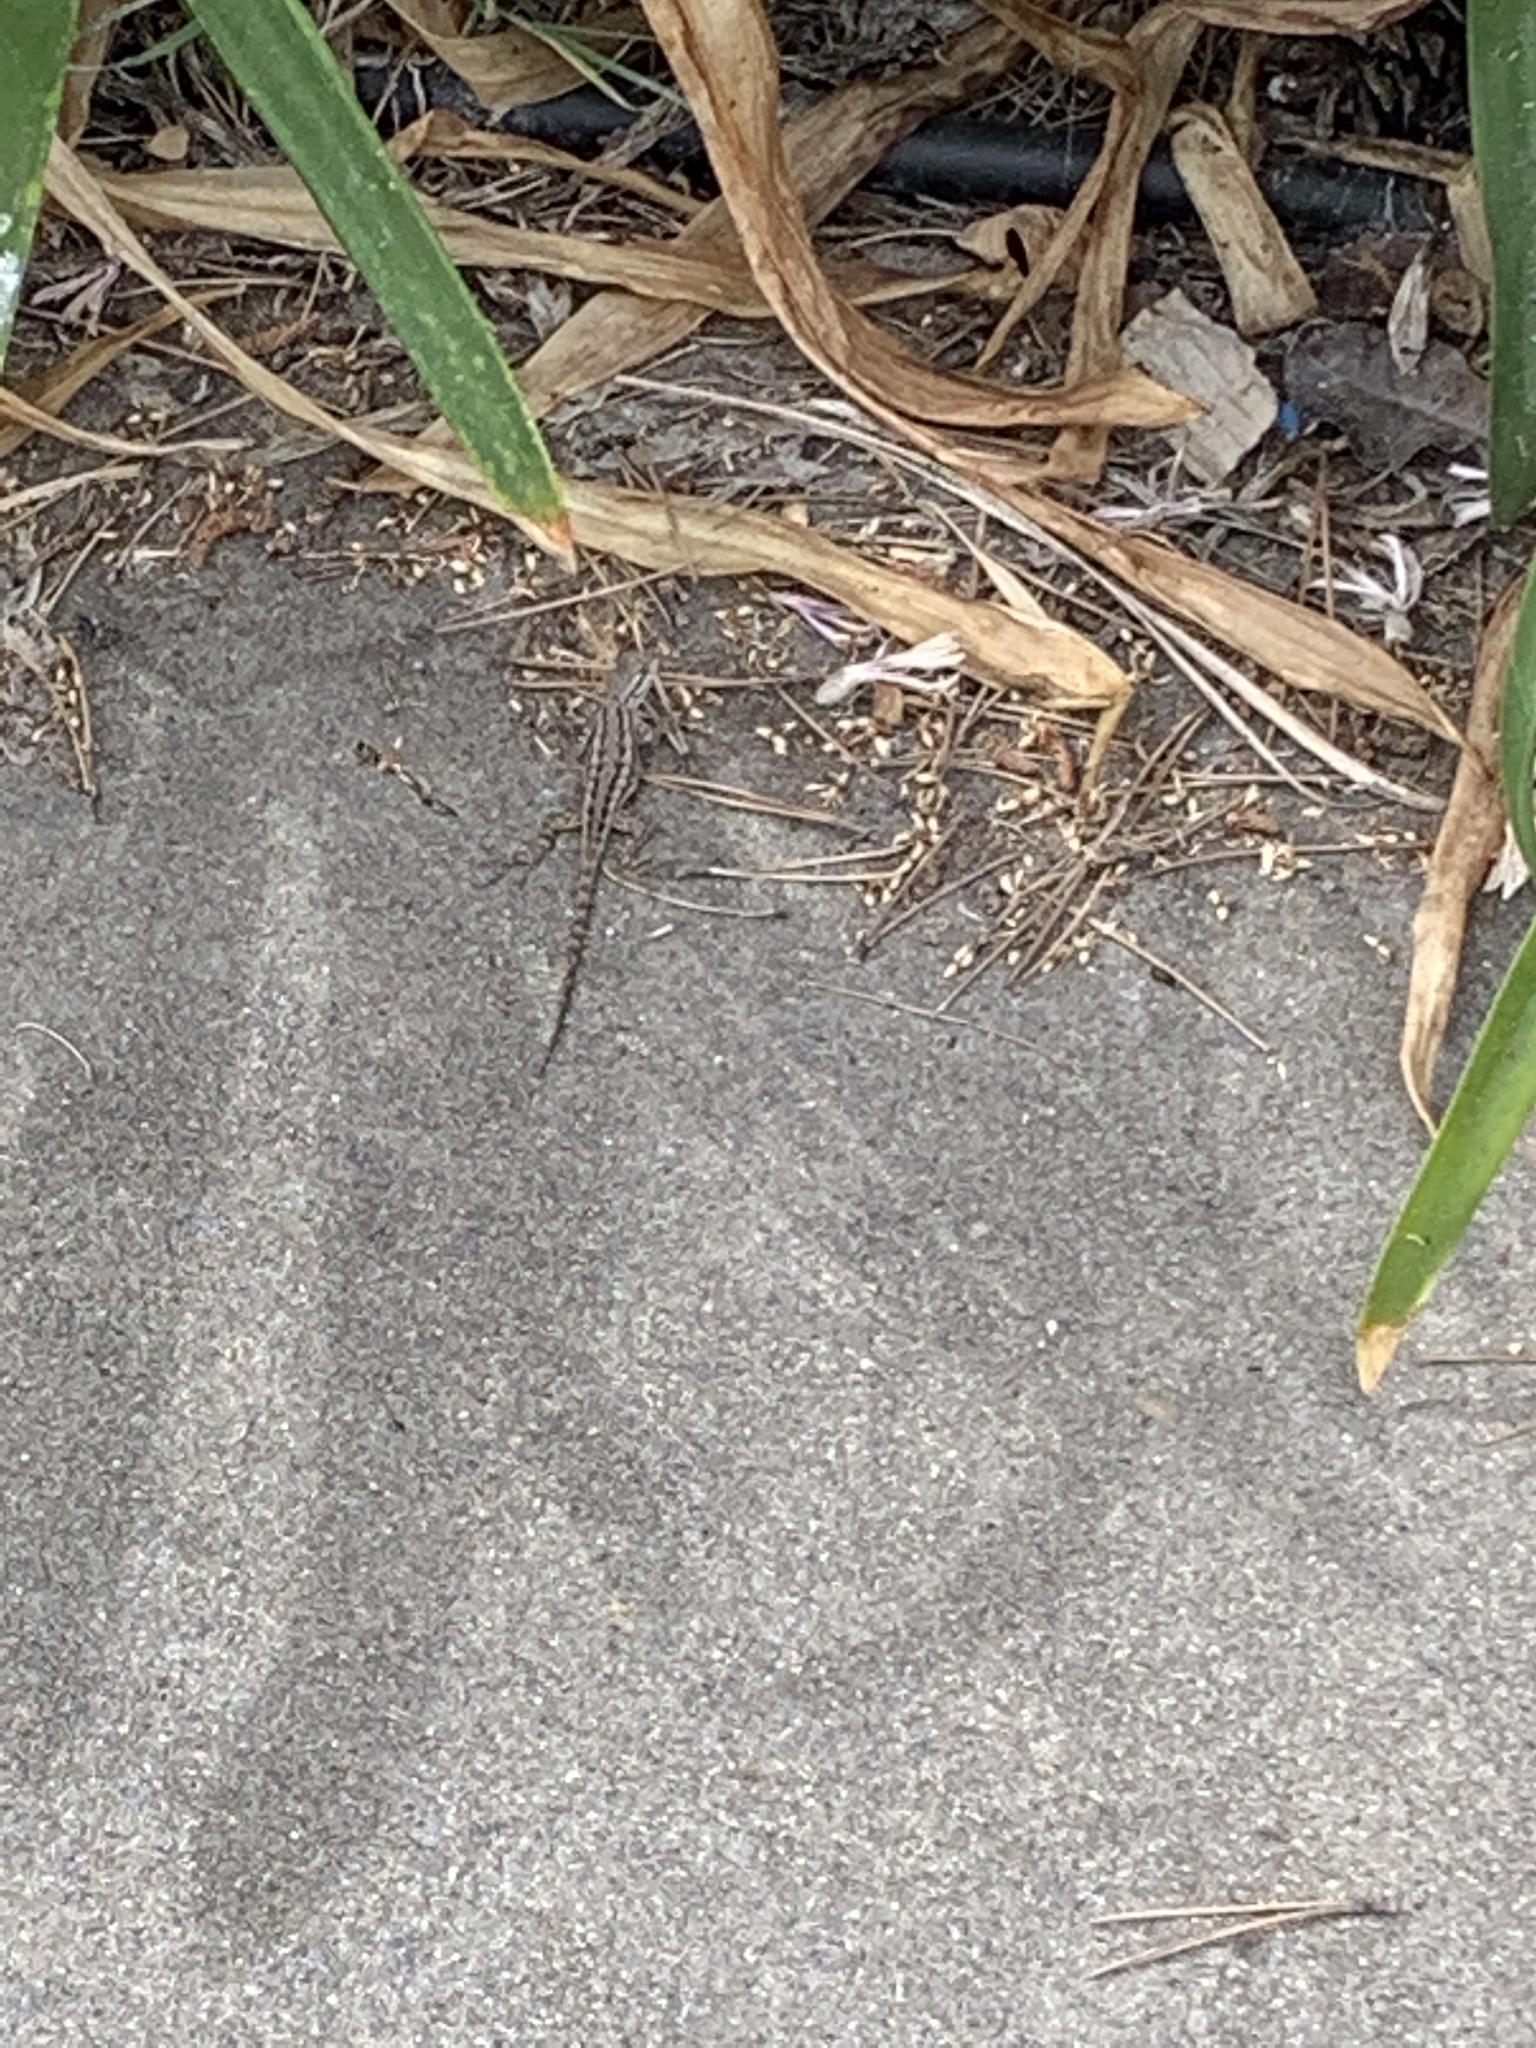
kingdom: Animalia
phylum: Chordata
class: Squamata
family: Phrynosomatidae
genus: Sceloporus
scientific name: Sceloporus occidentalis
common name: Western fence lizard
